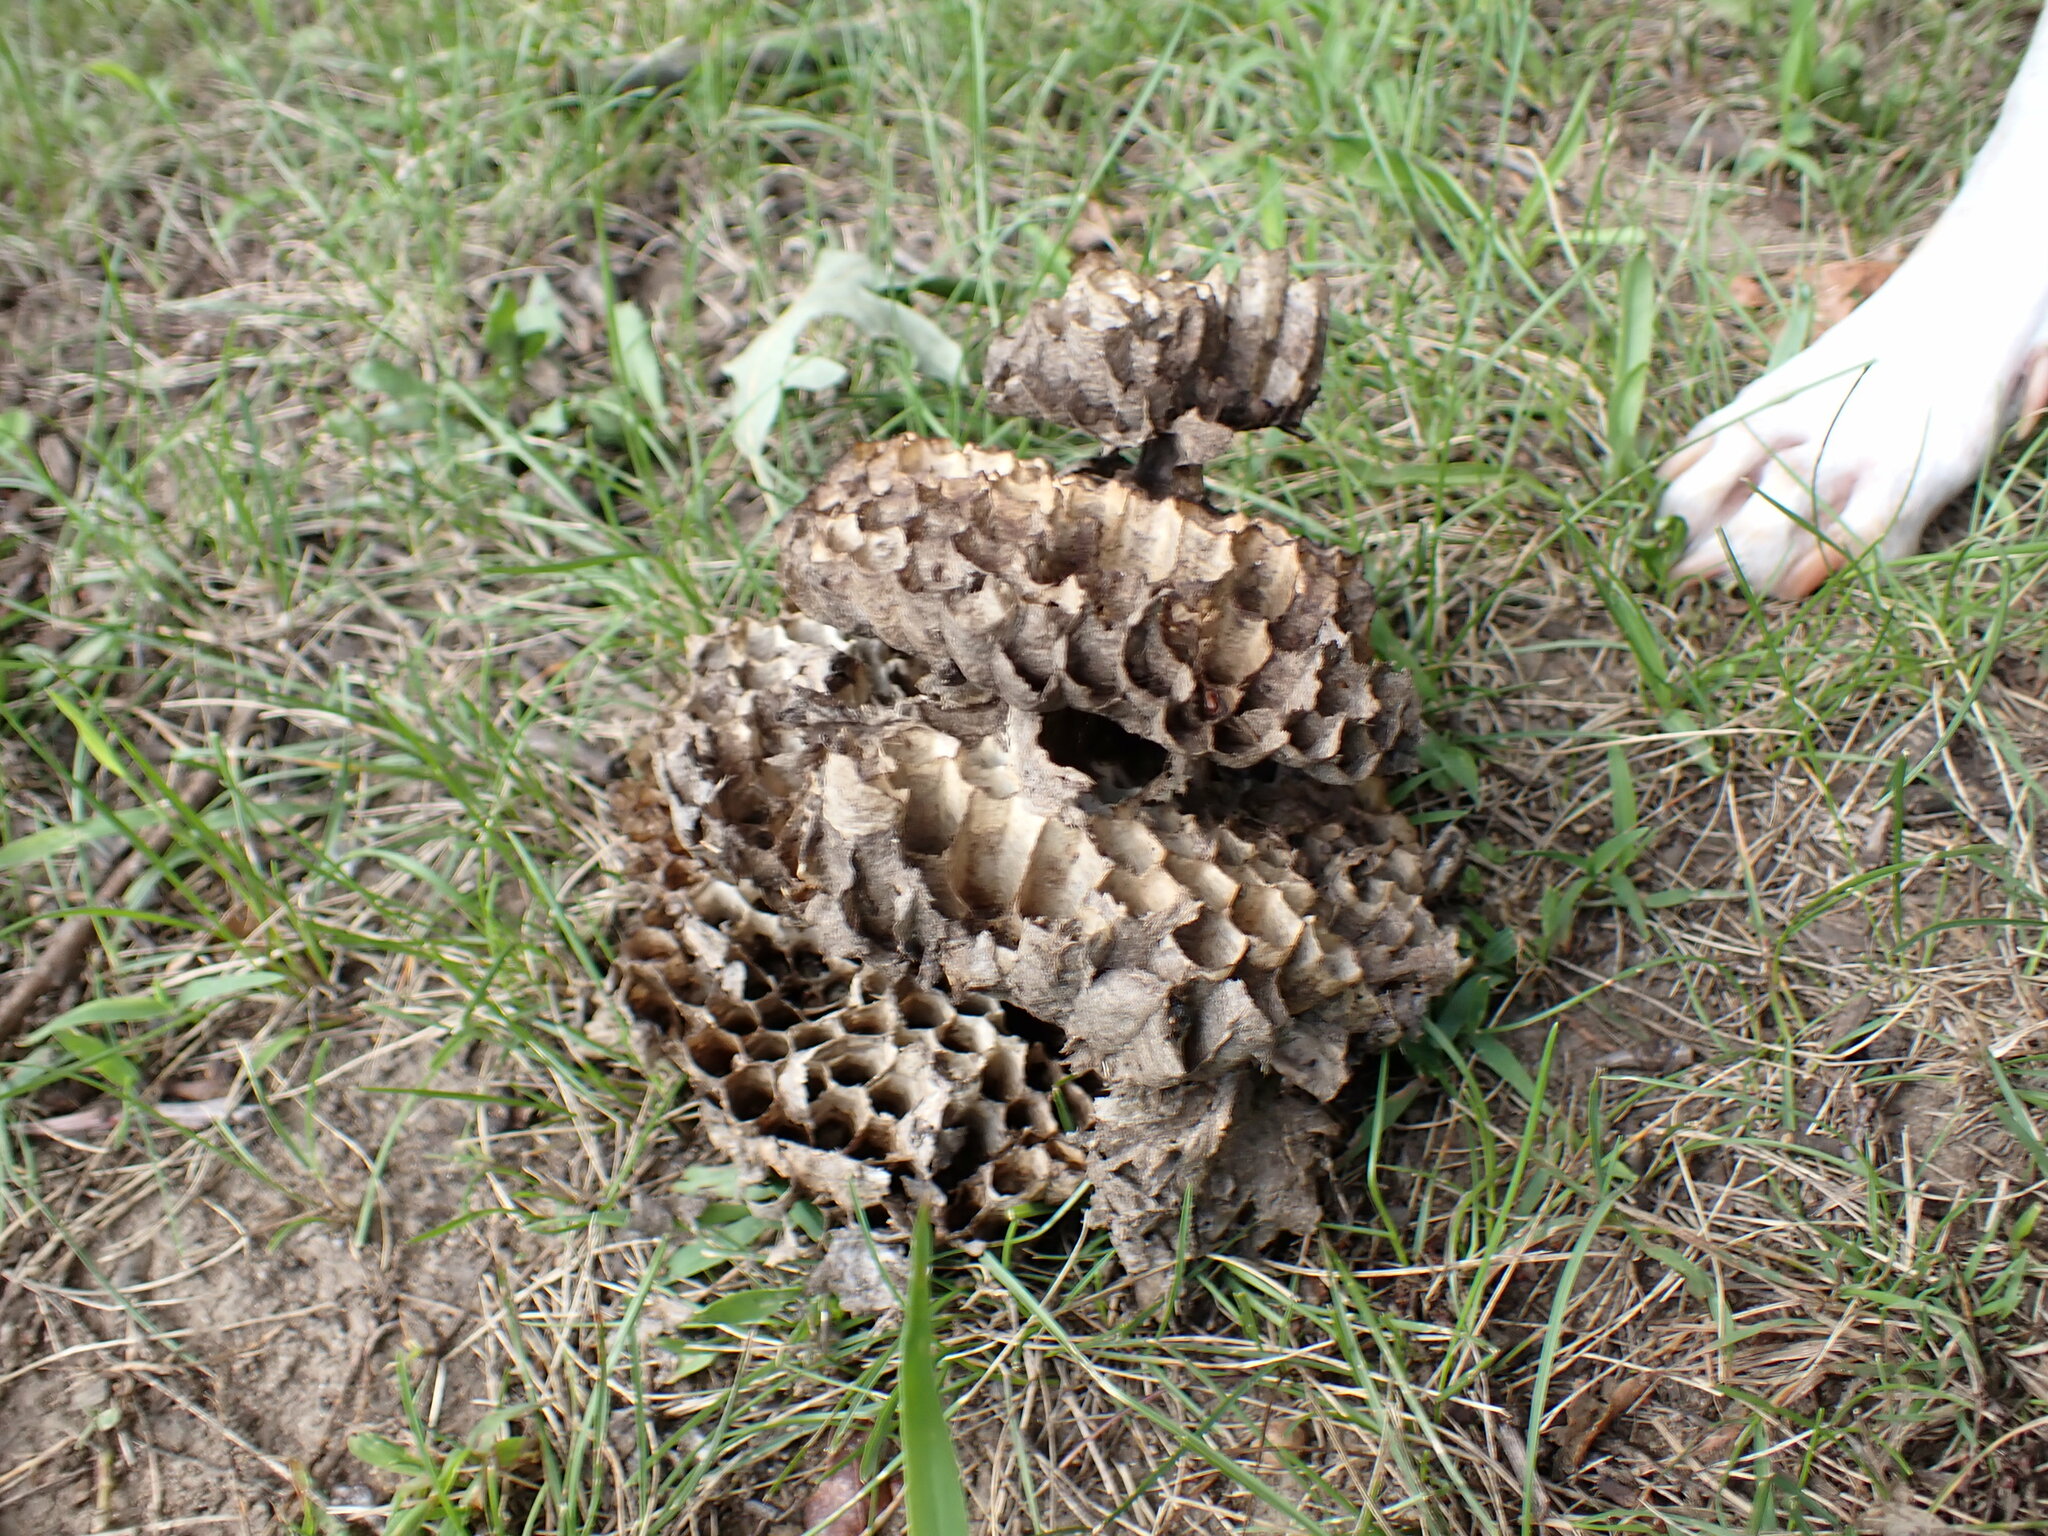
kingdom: Animalia
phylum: Arthropoda
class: Insecta
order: Hymenoptera
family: Vespidae
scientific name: Vespidae
